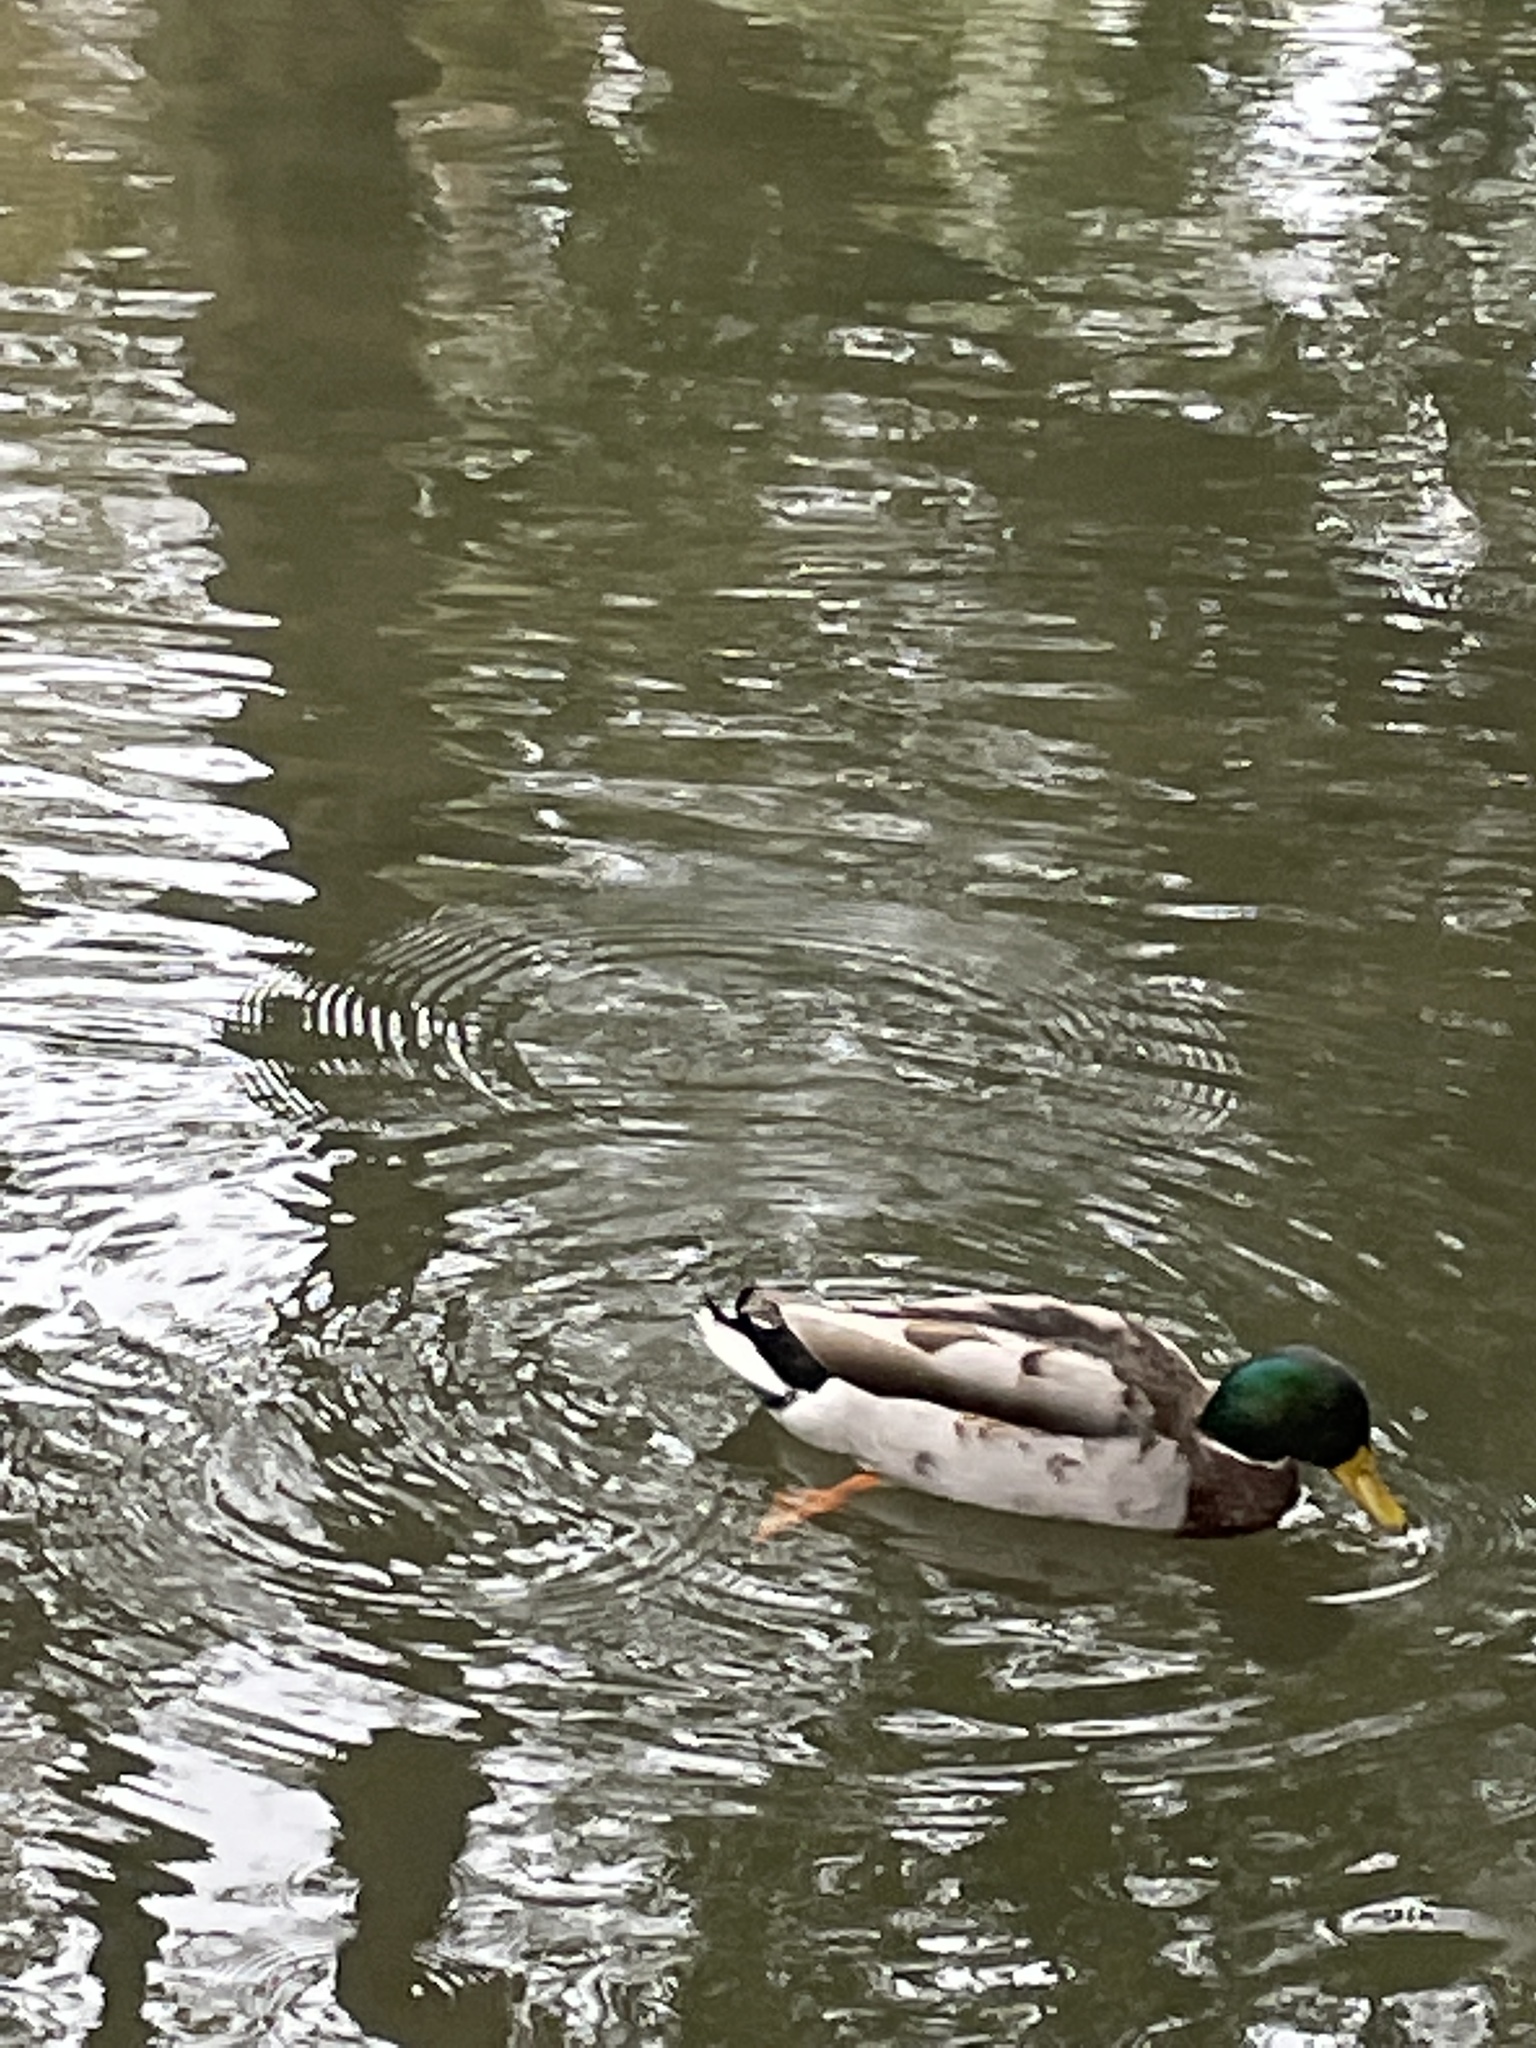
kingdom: Animalia
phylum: Chordata
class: Aves
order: Anseriformes
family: Anatidae
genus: Anas
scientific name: Anas platyrhynchos
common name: Mallard
